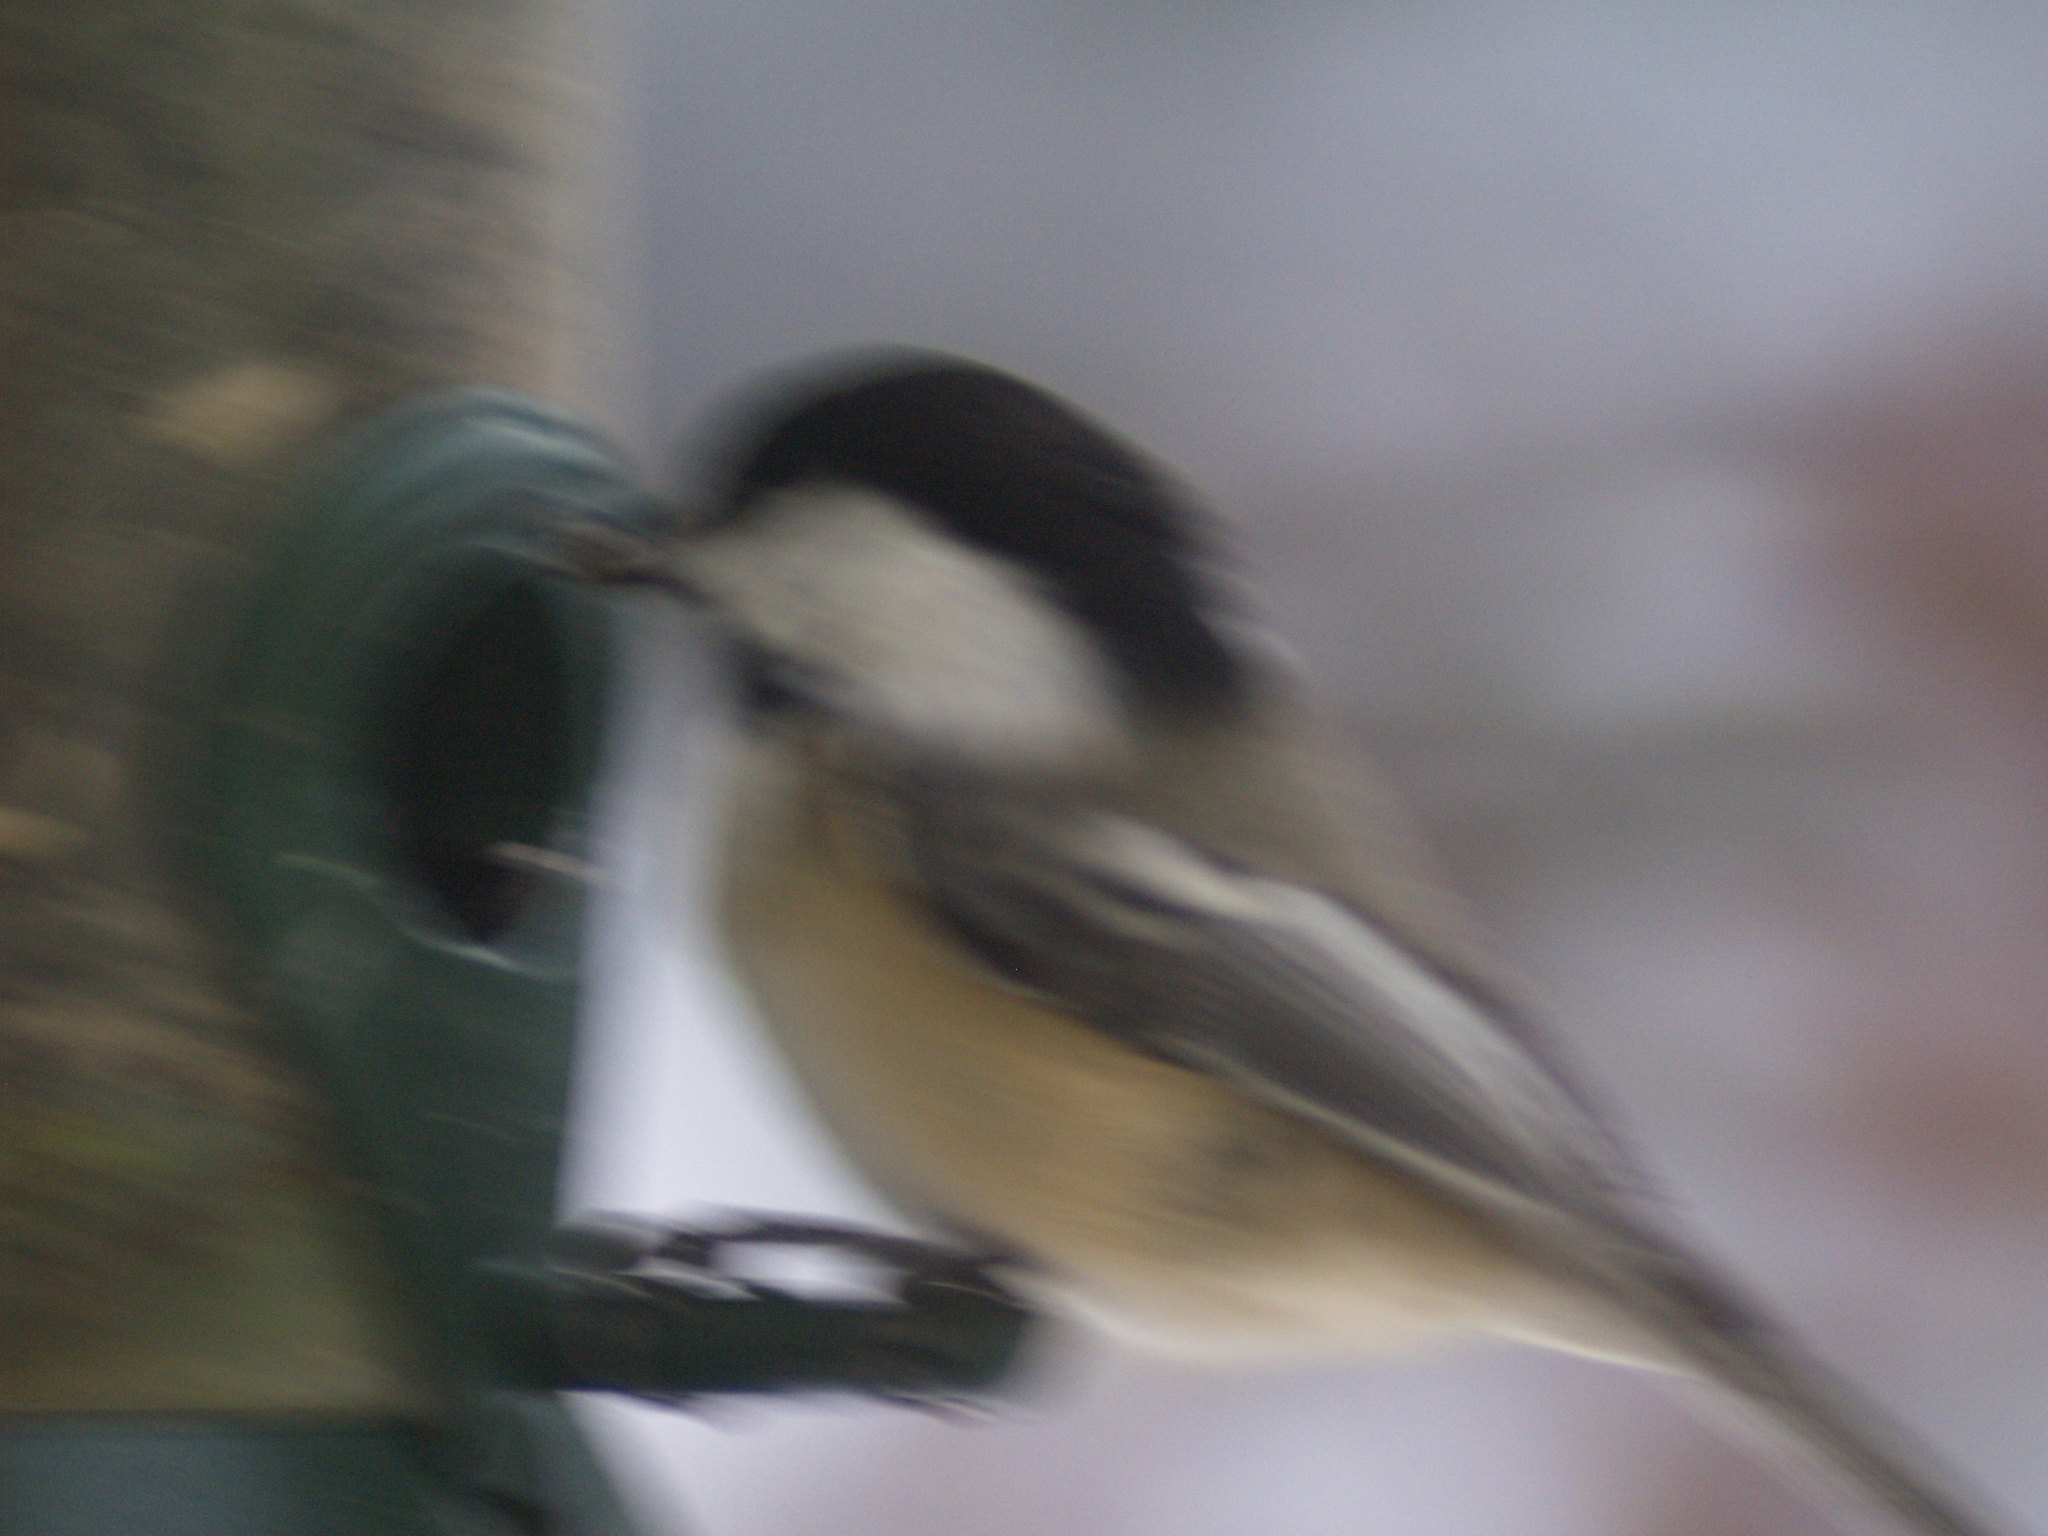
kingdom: Animalia
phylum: Chordata
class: Aves
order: Passeriformes
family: Paridae
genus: Poecile
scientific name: Poecile atricapillus
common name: Black-capped chickadee
